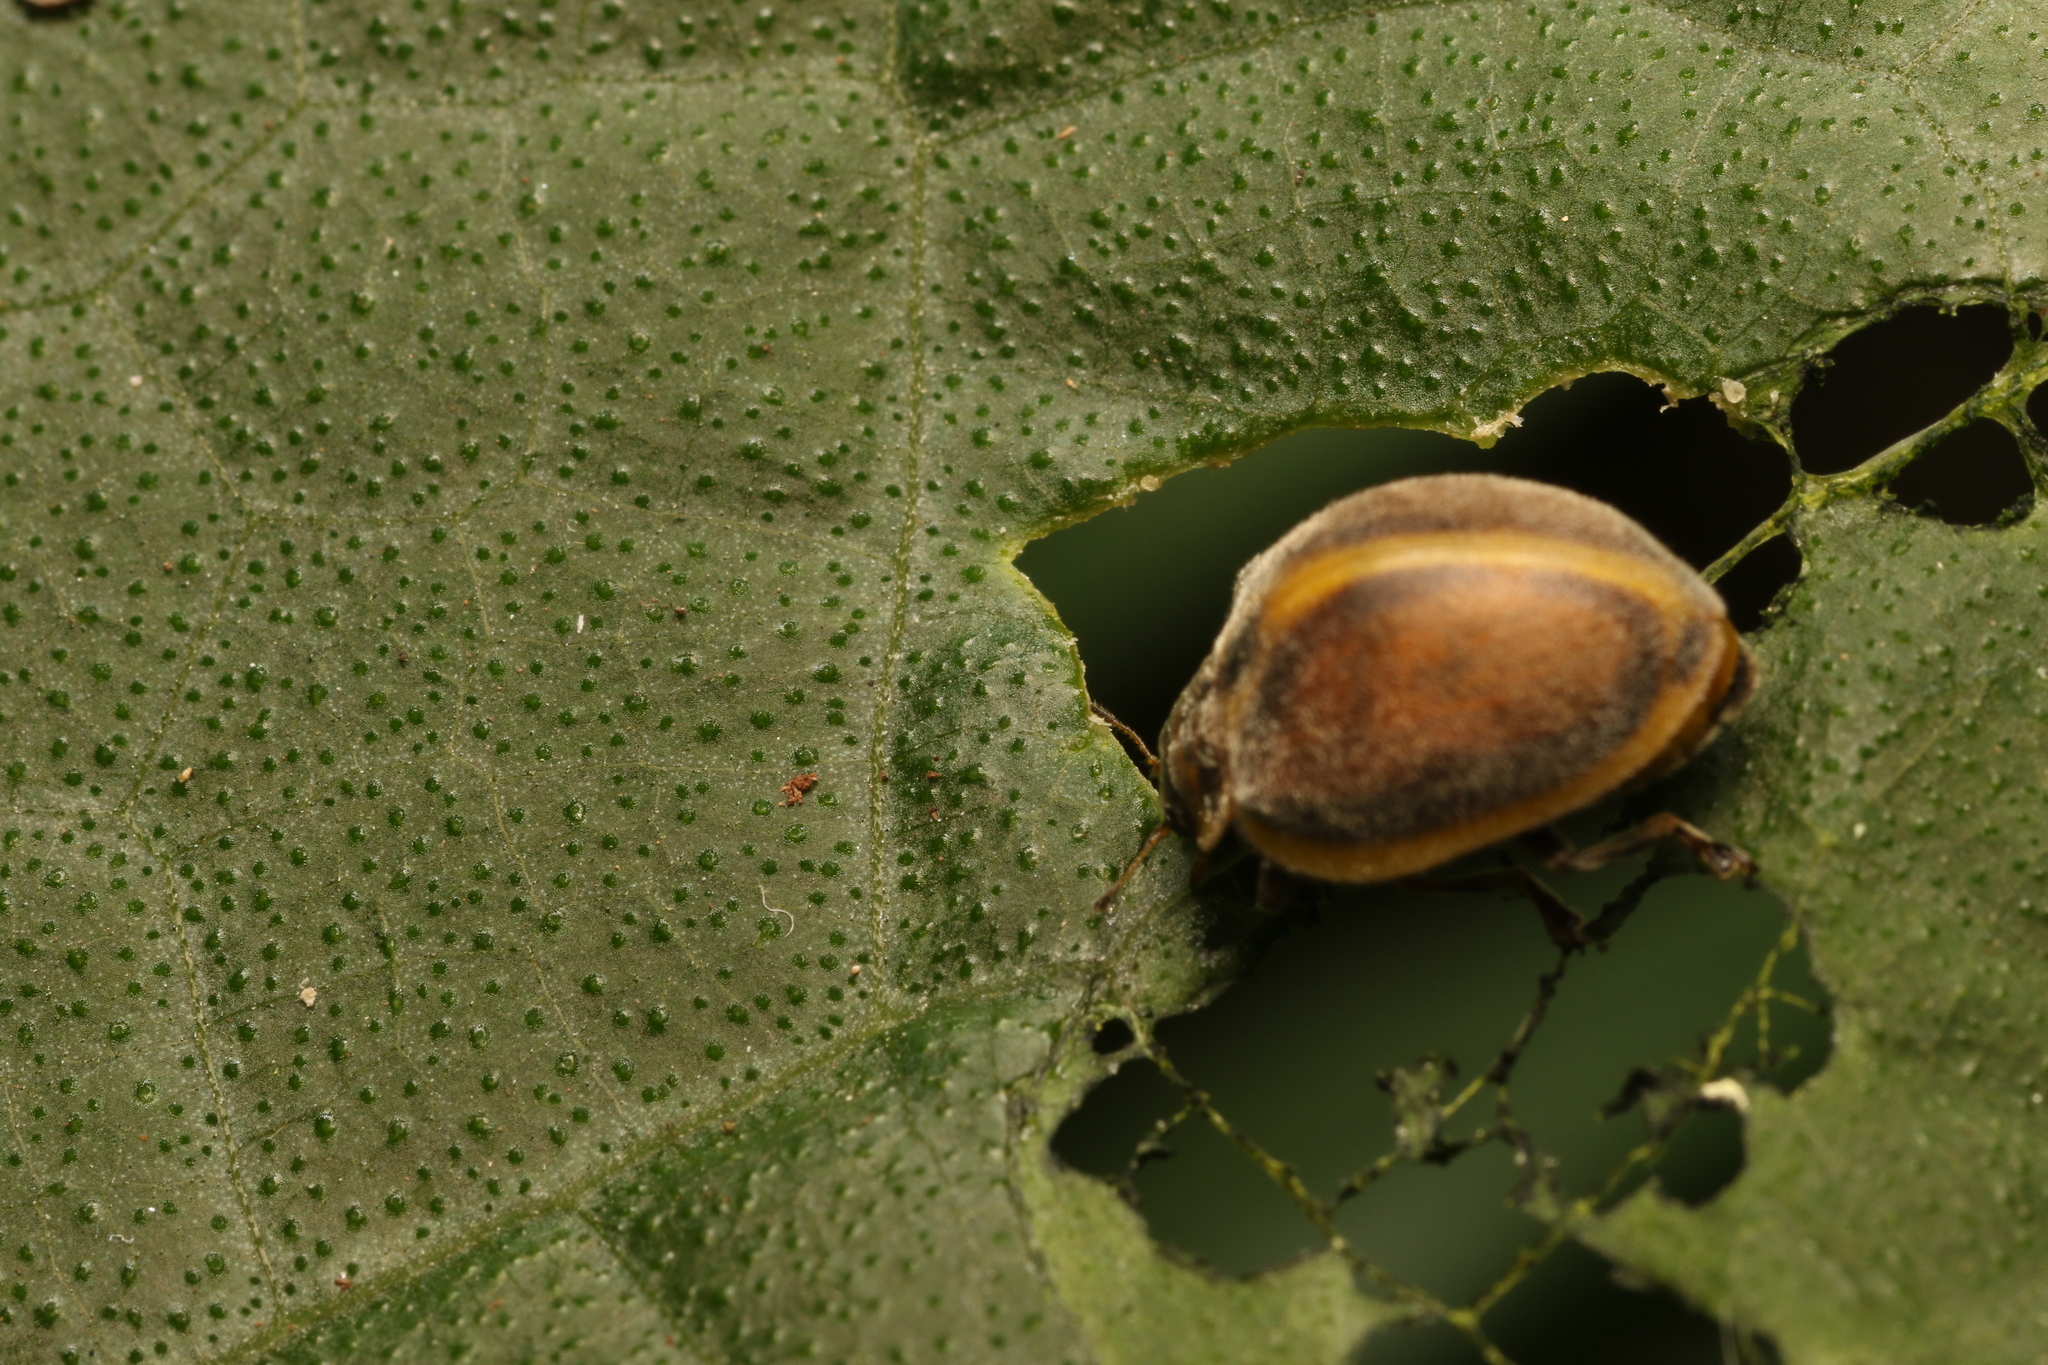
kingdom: Animalia
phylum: Arthropoda
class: Insecta
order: Coleoptera
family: Coccinellidae
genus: Epilachna
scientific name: Epilachna
